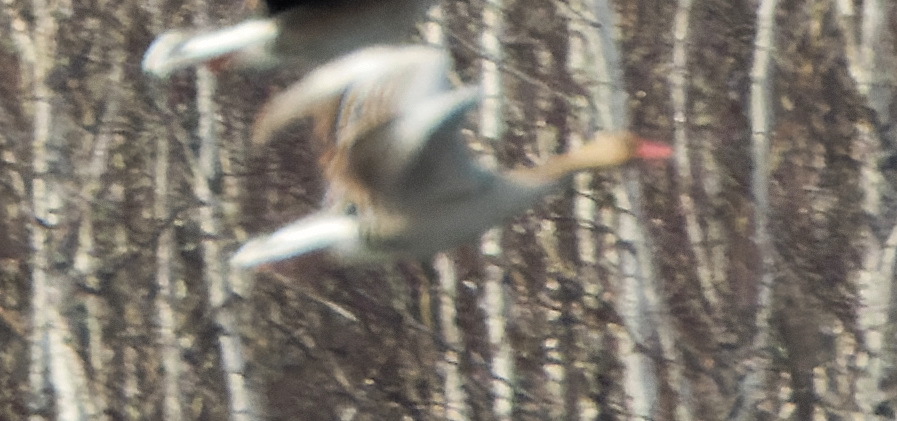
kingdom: Animalia
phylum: Chordata
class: Aves
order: Anseriformes
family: Anatidae
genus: Anser
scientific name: Anser anser
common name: Greylag goose
